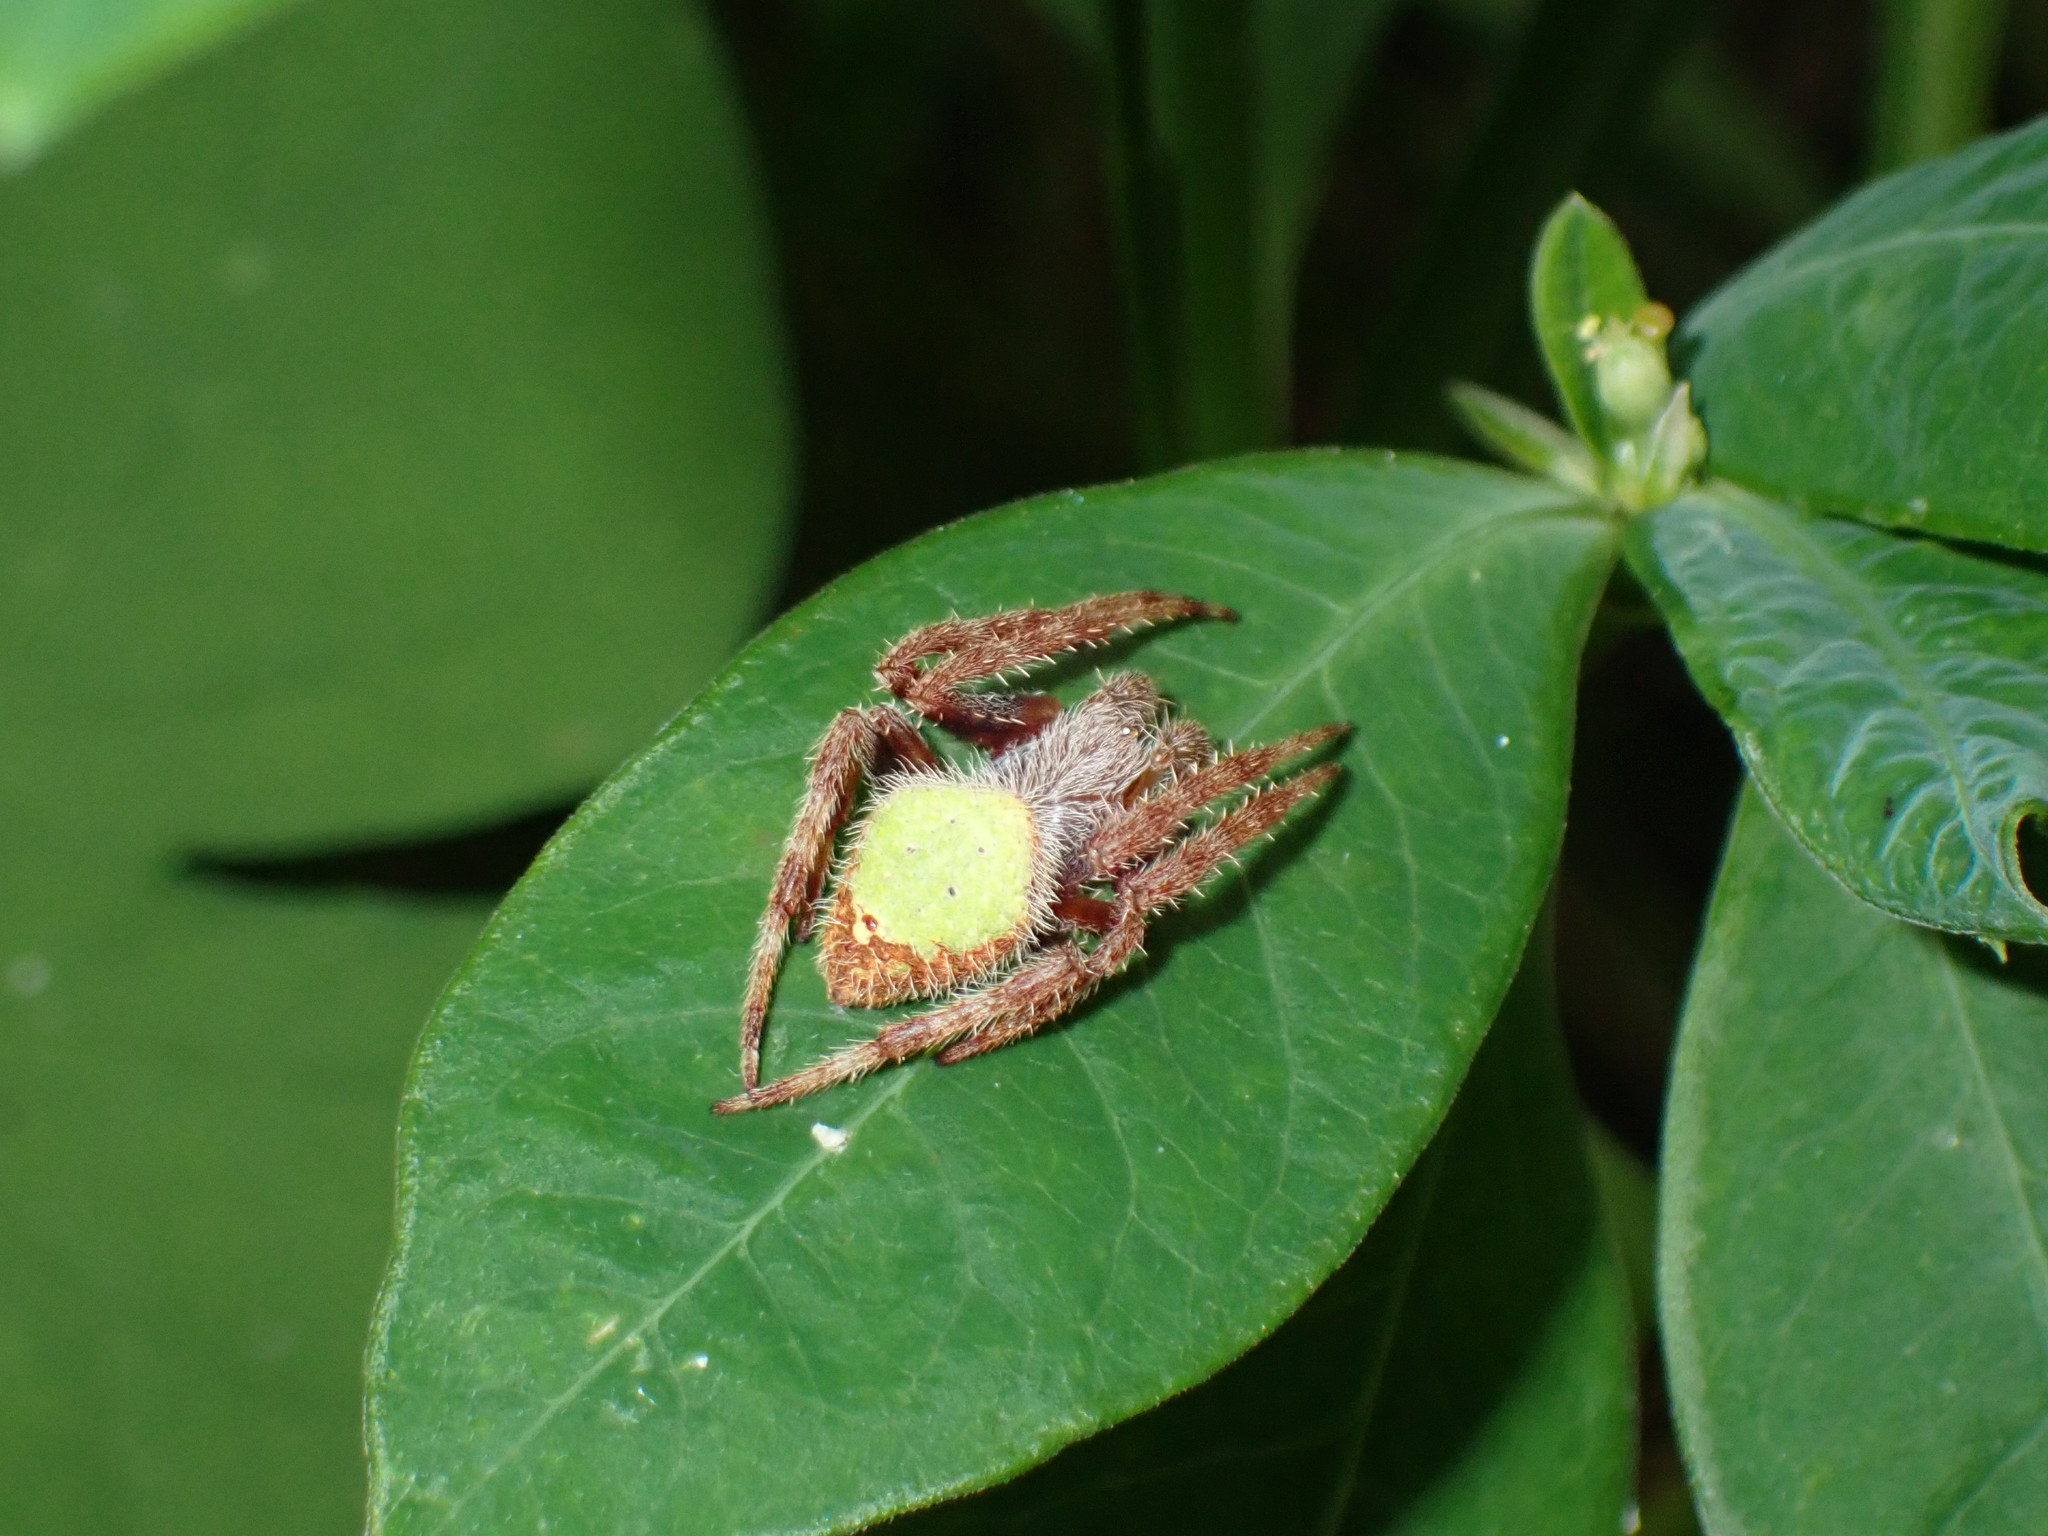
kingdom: Animalia
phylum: Arthropoda
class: Arachnida
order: Araneae
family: Araneidae
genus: Eriophora
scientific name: Eriophora ravilla
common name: Orb weavers
